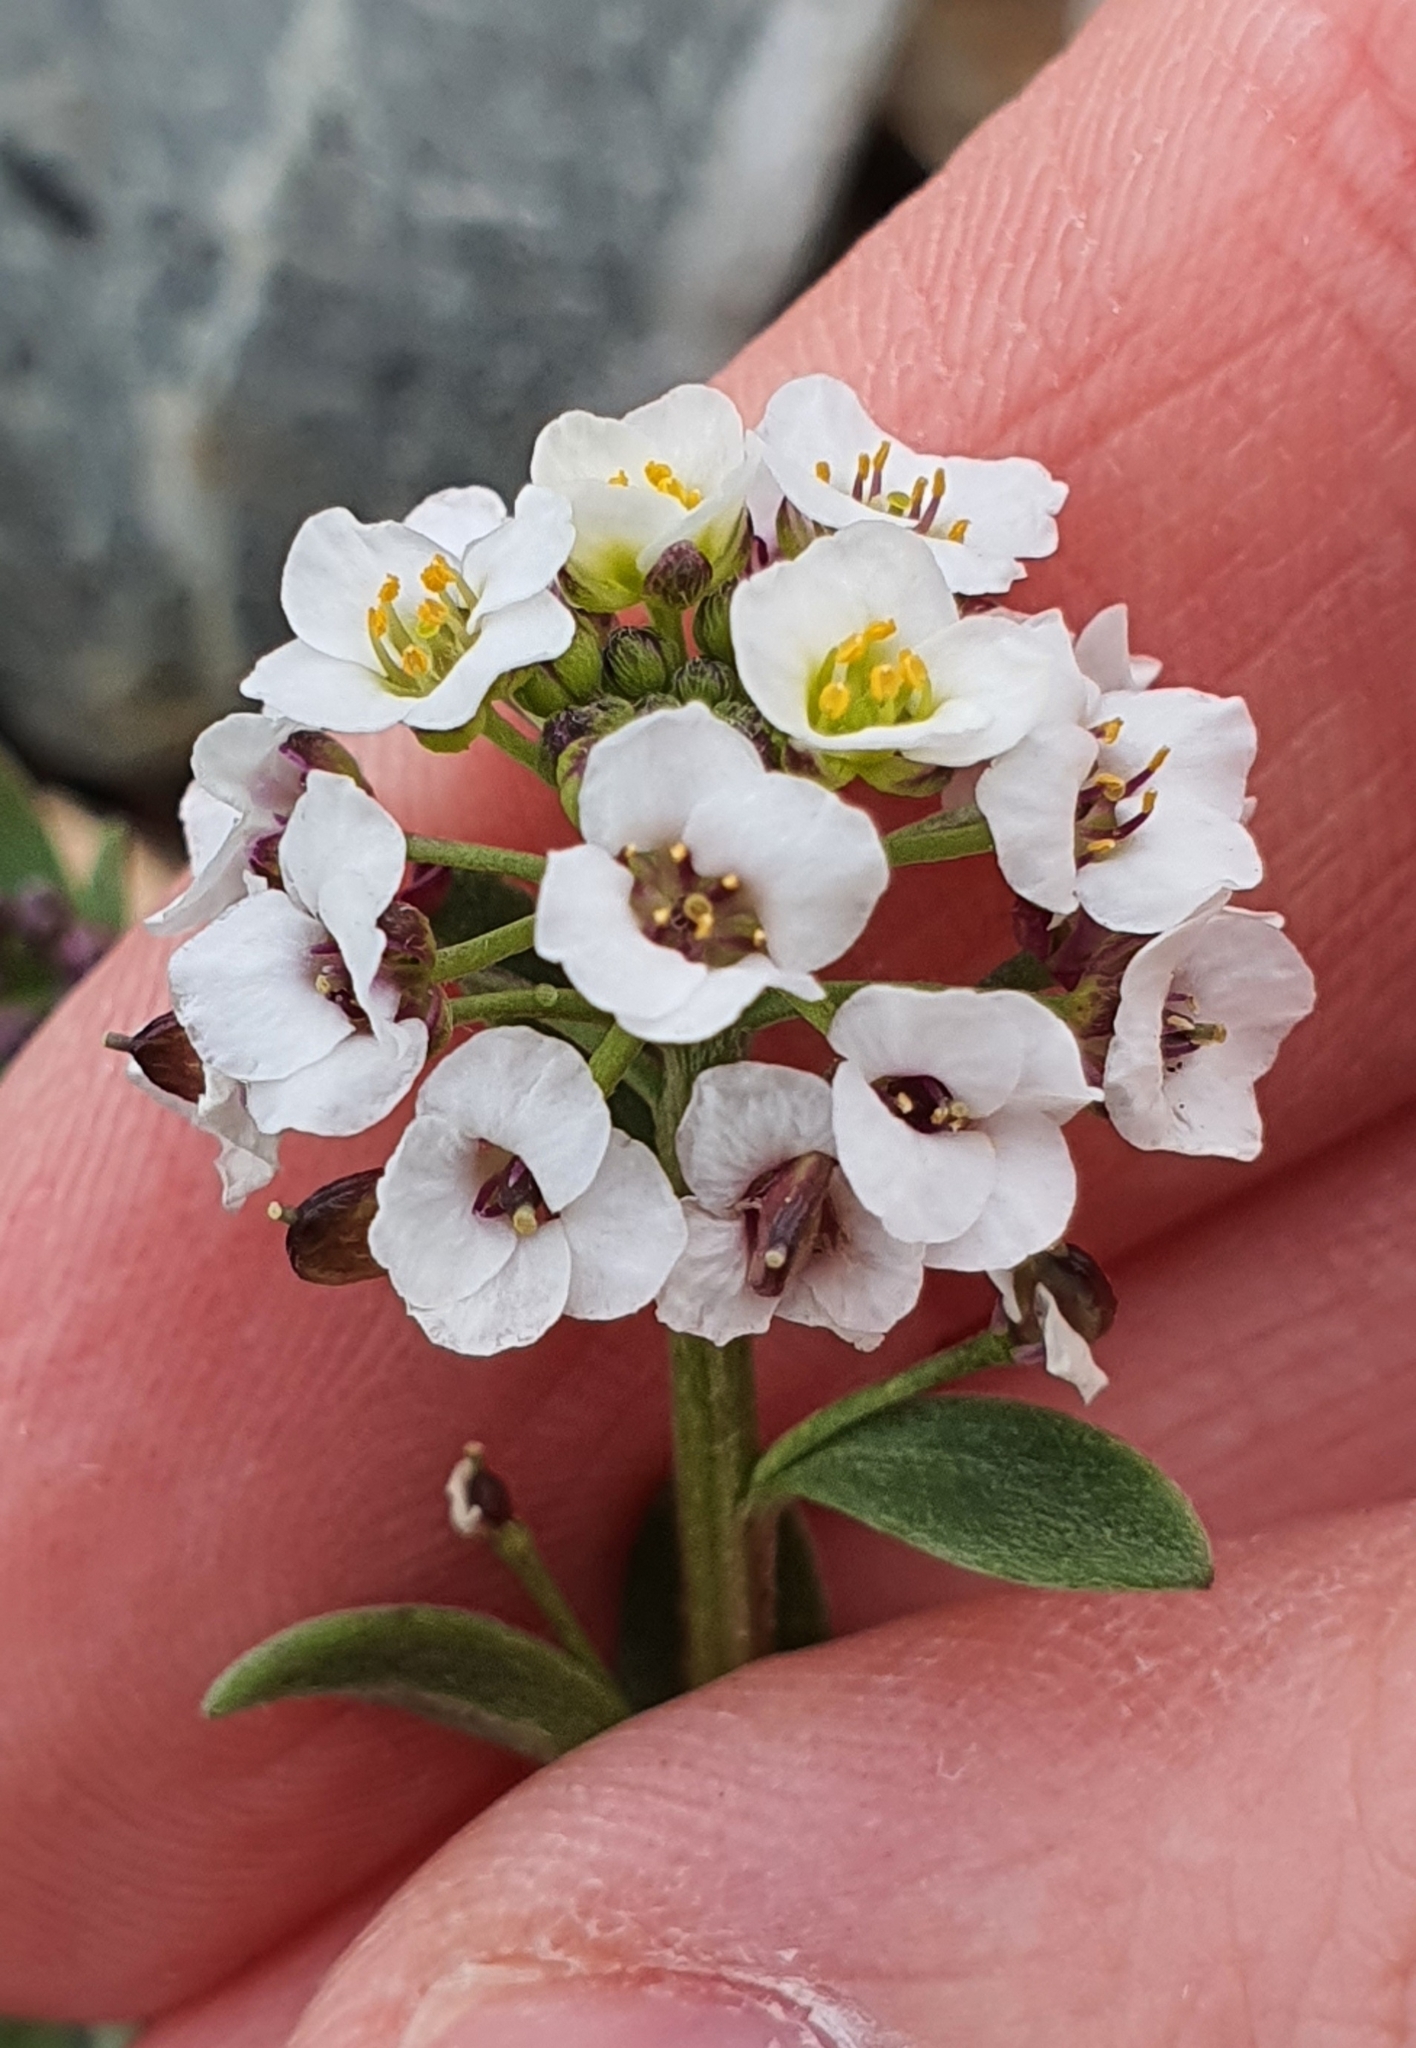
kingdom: Plantae
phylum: Tracheophyta
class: Magnoliopsida
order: Brassicales
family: Brassicaceae
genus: Lobularia
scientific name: Lobularia maritima
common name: Sweet alison
